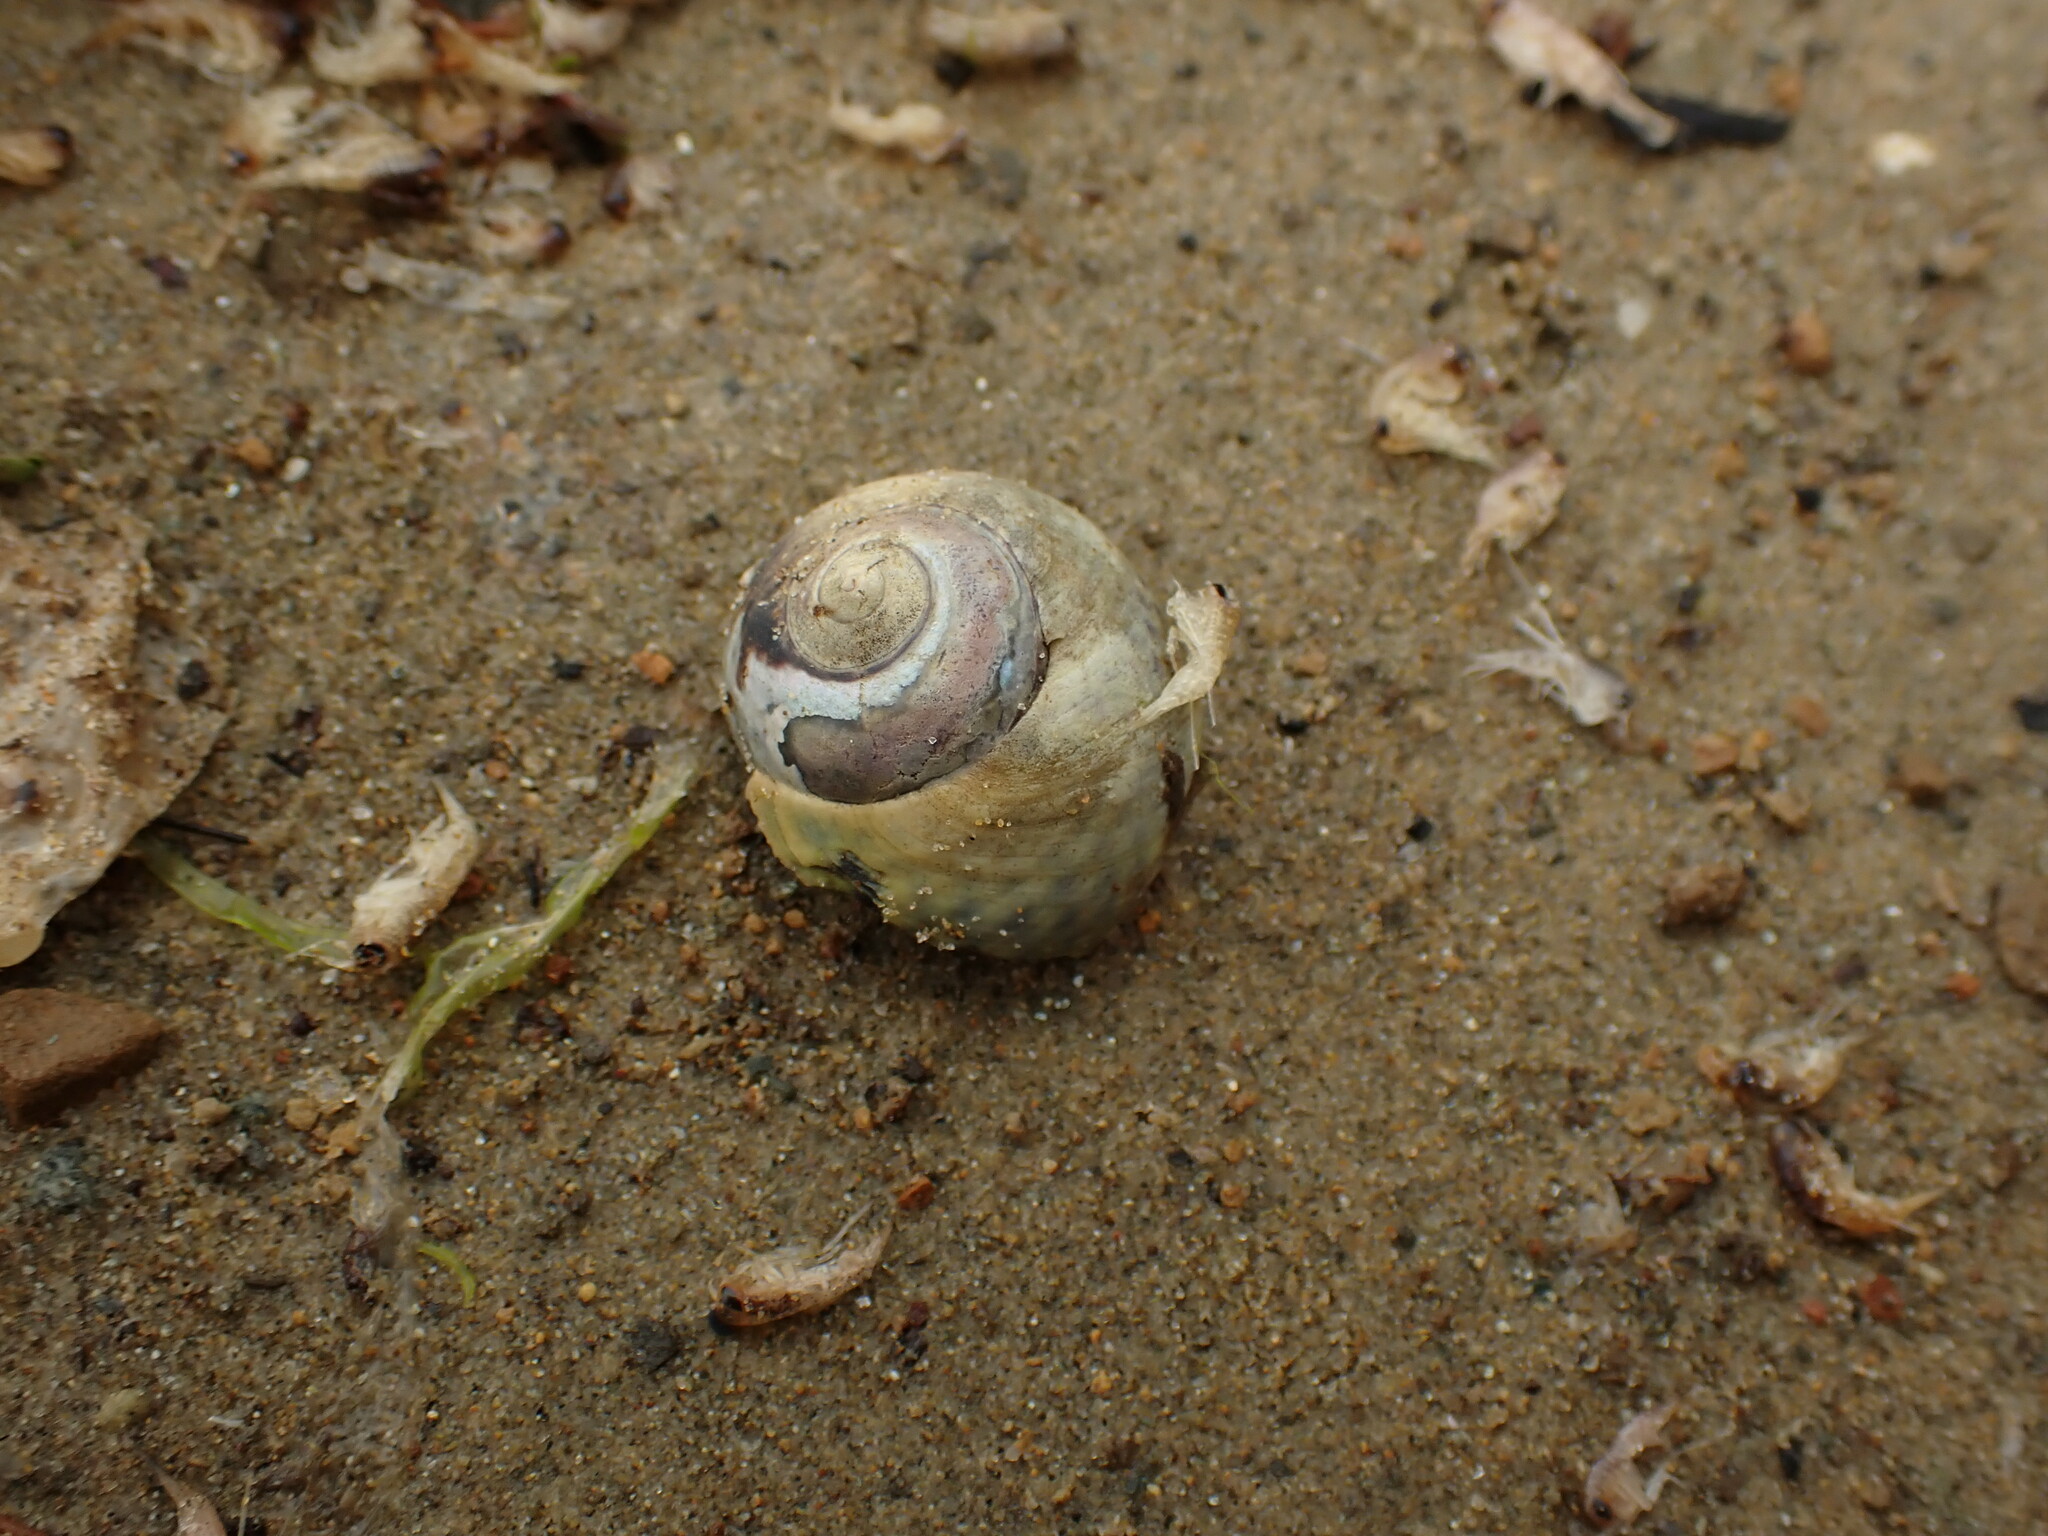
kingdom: Animalia
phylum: Mollusca
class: Gastropoda
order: Trochida
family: Trochidae
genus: Diloma
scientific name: Diloma subrostratum
